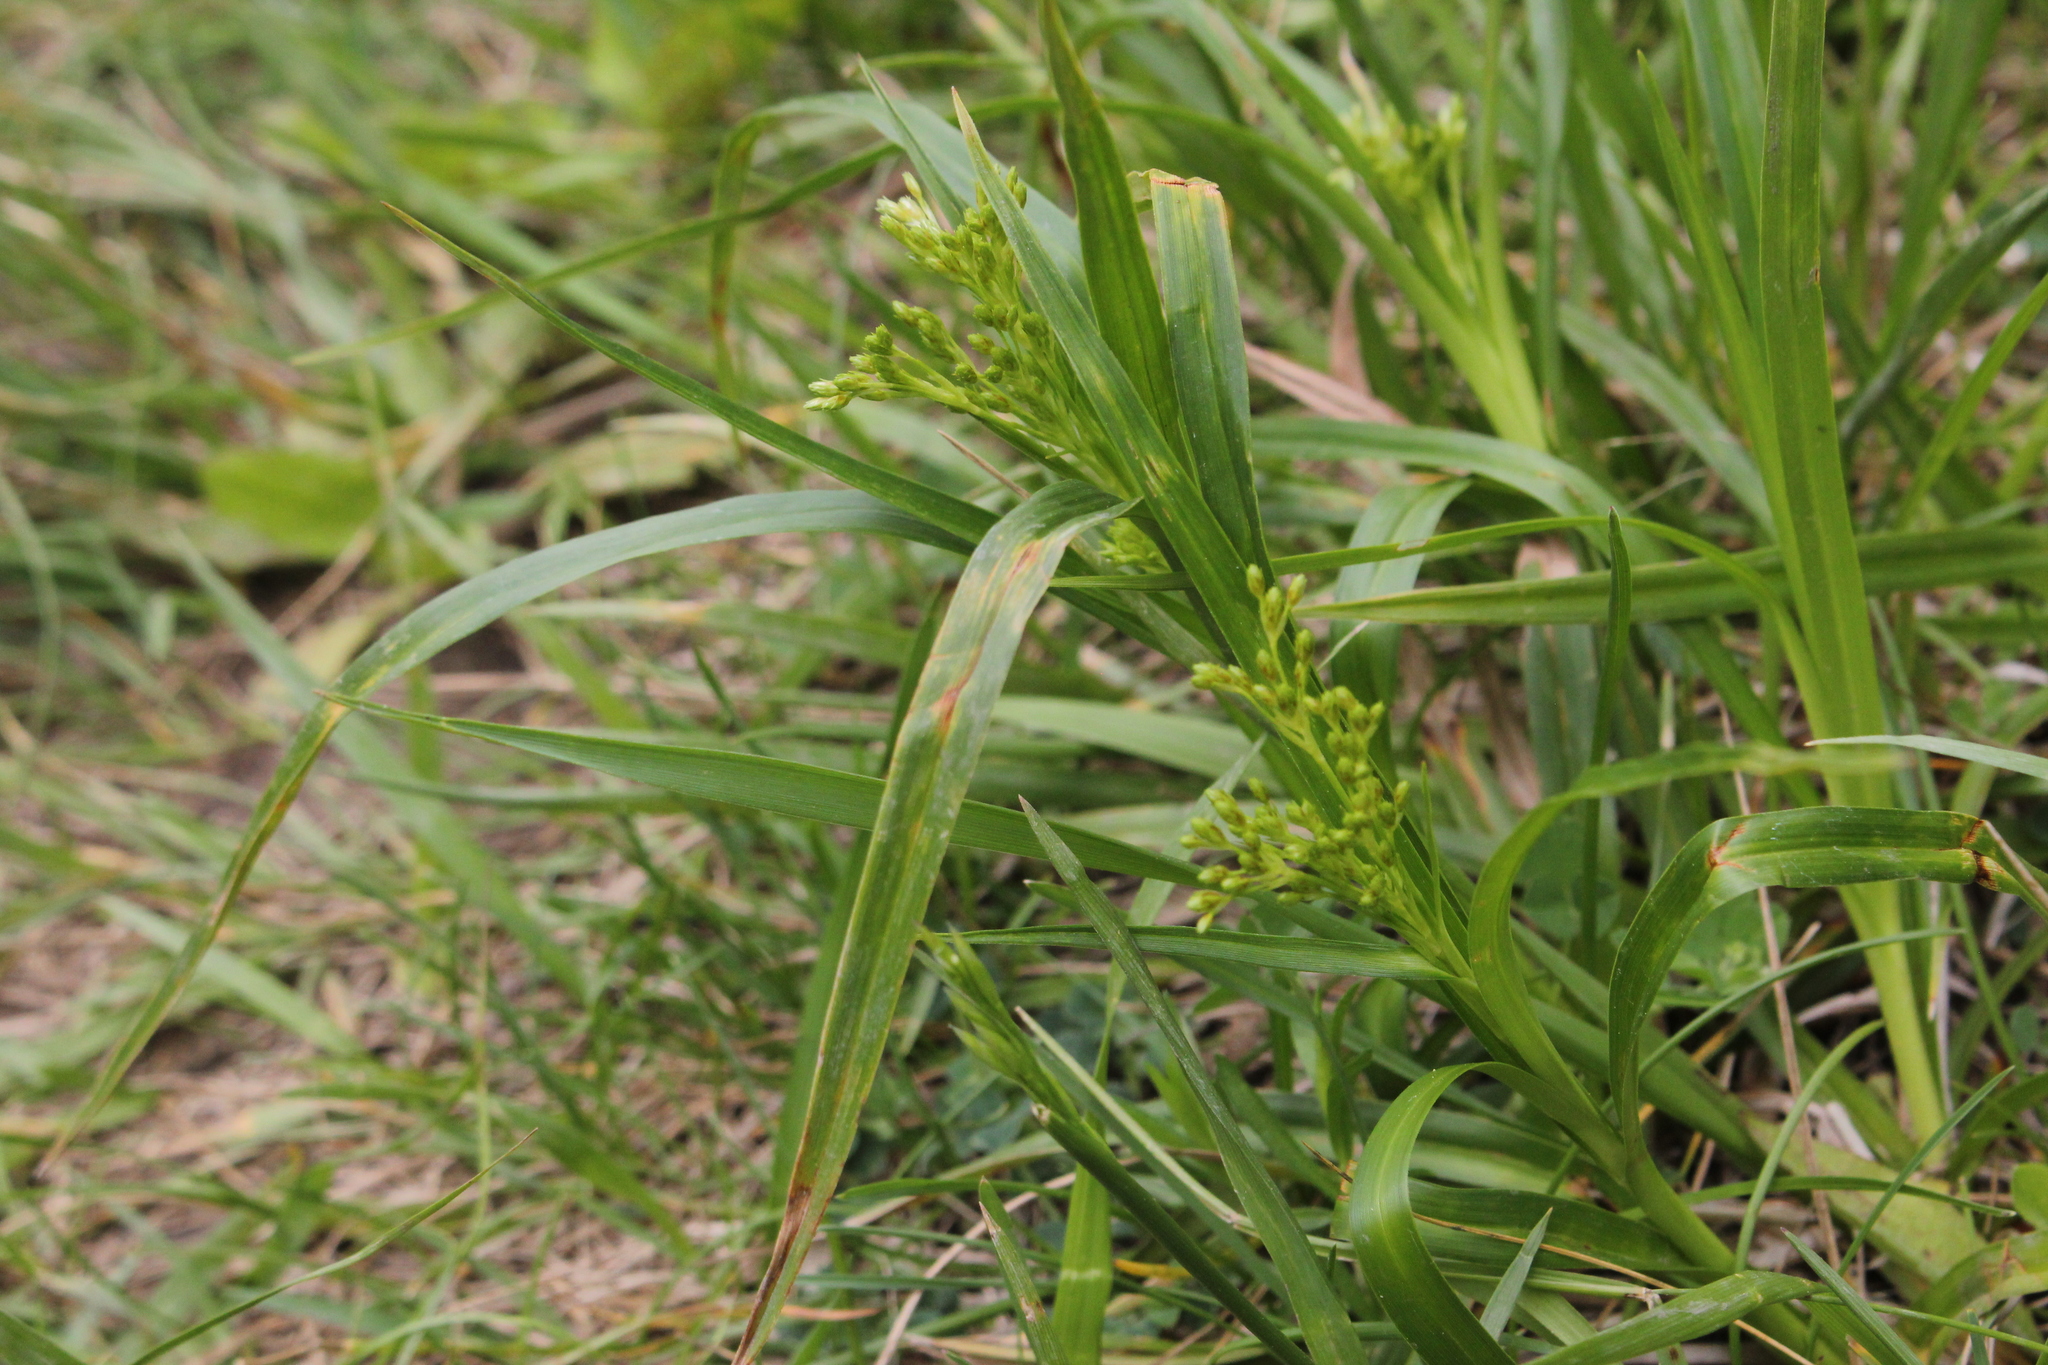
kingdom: Plantae
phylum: Tracheophyta
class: Liliopsida
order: Poales
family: Cyperaceae
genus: Scirpus
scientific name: Scirpus pendulus
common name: Nodding bulrush
